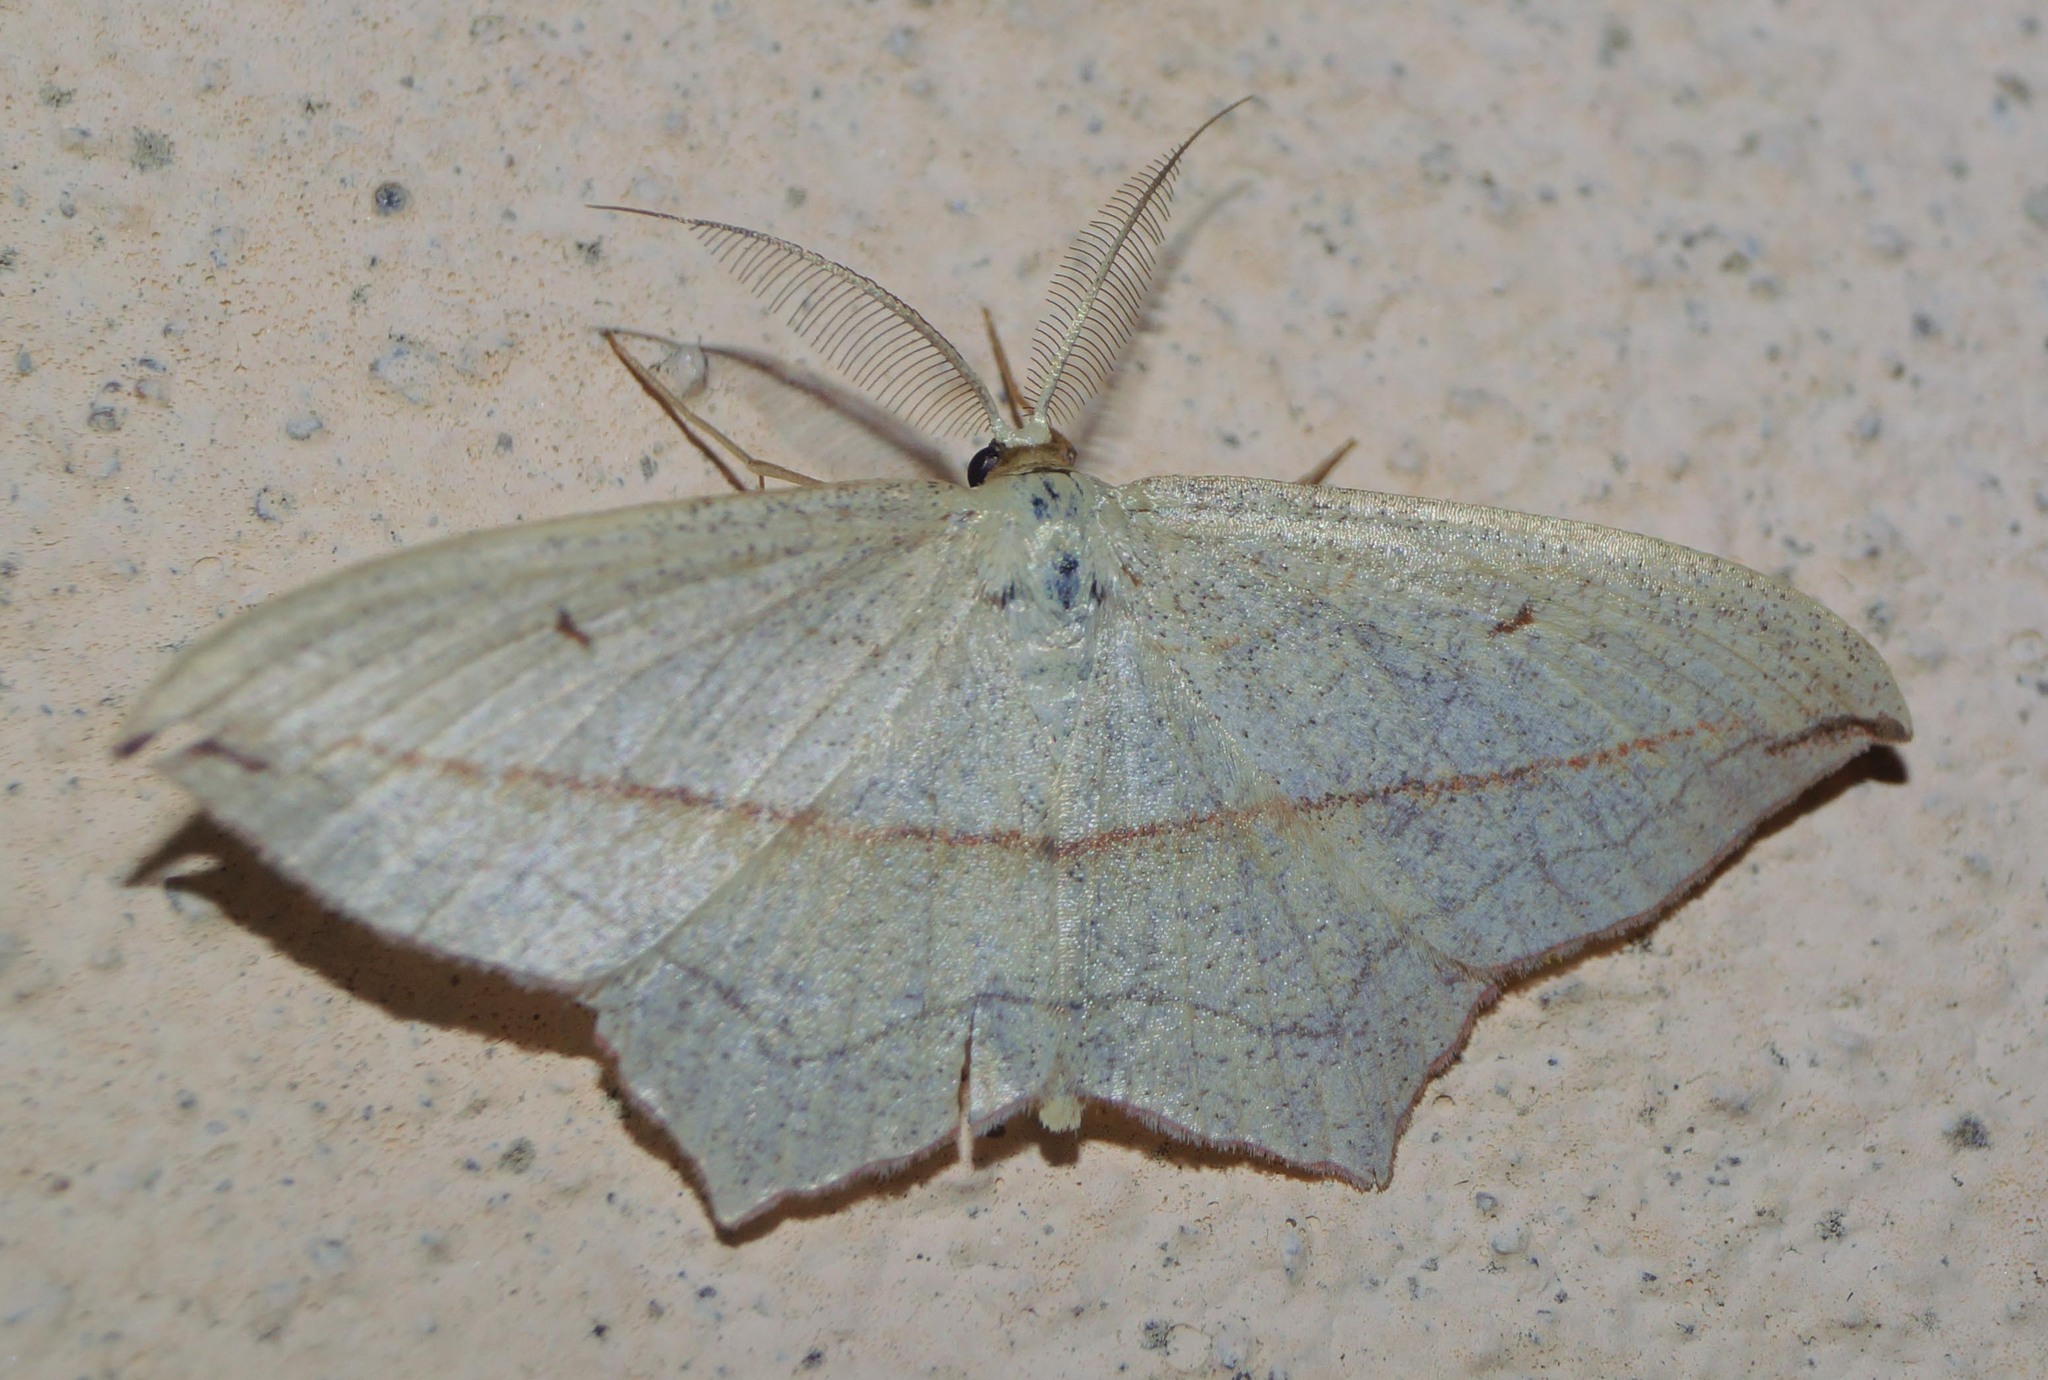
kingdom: Animalia
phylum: Arthropoda
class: Insecta
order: Lepidoptera
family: Geometridae
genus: Timandra
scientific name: Timandra comae
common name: Blood-vein
